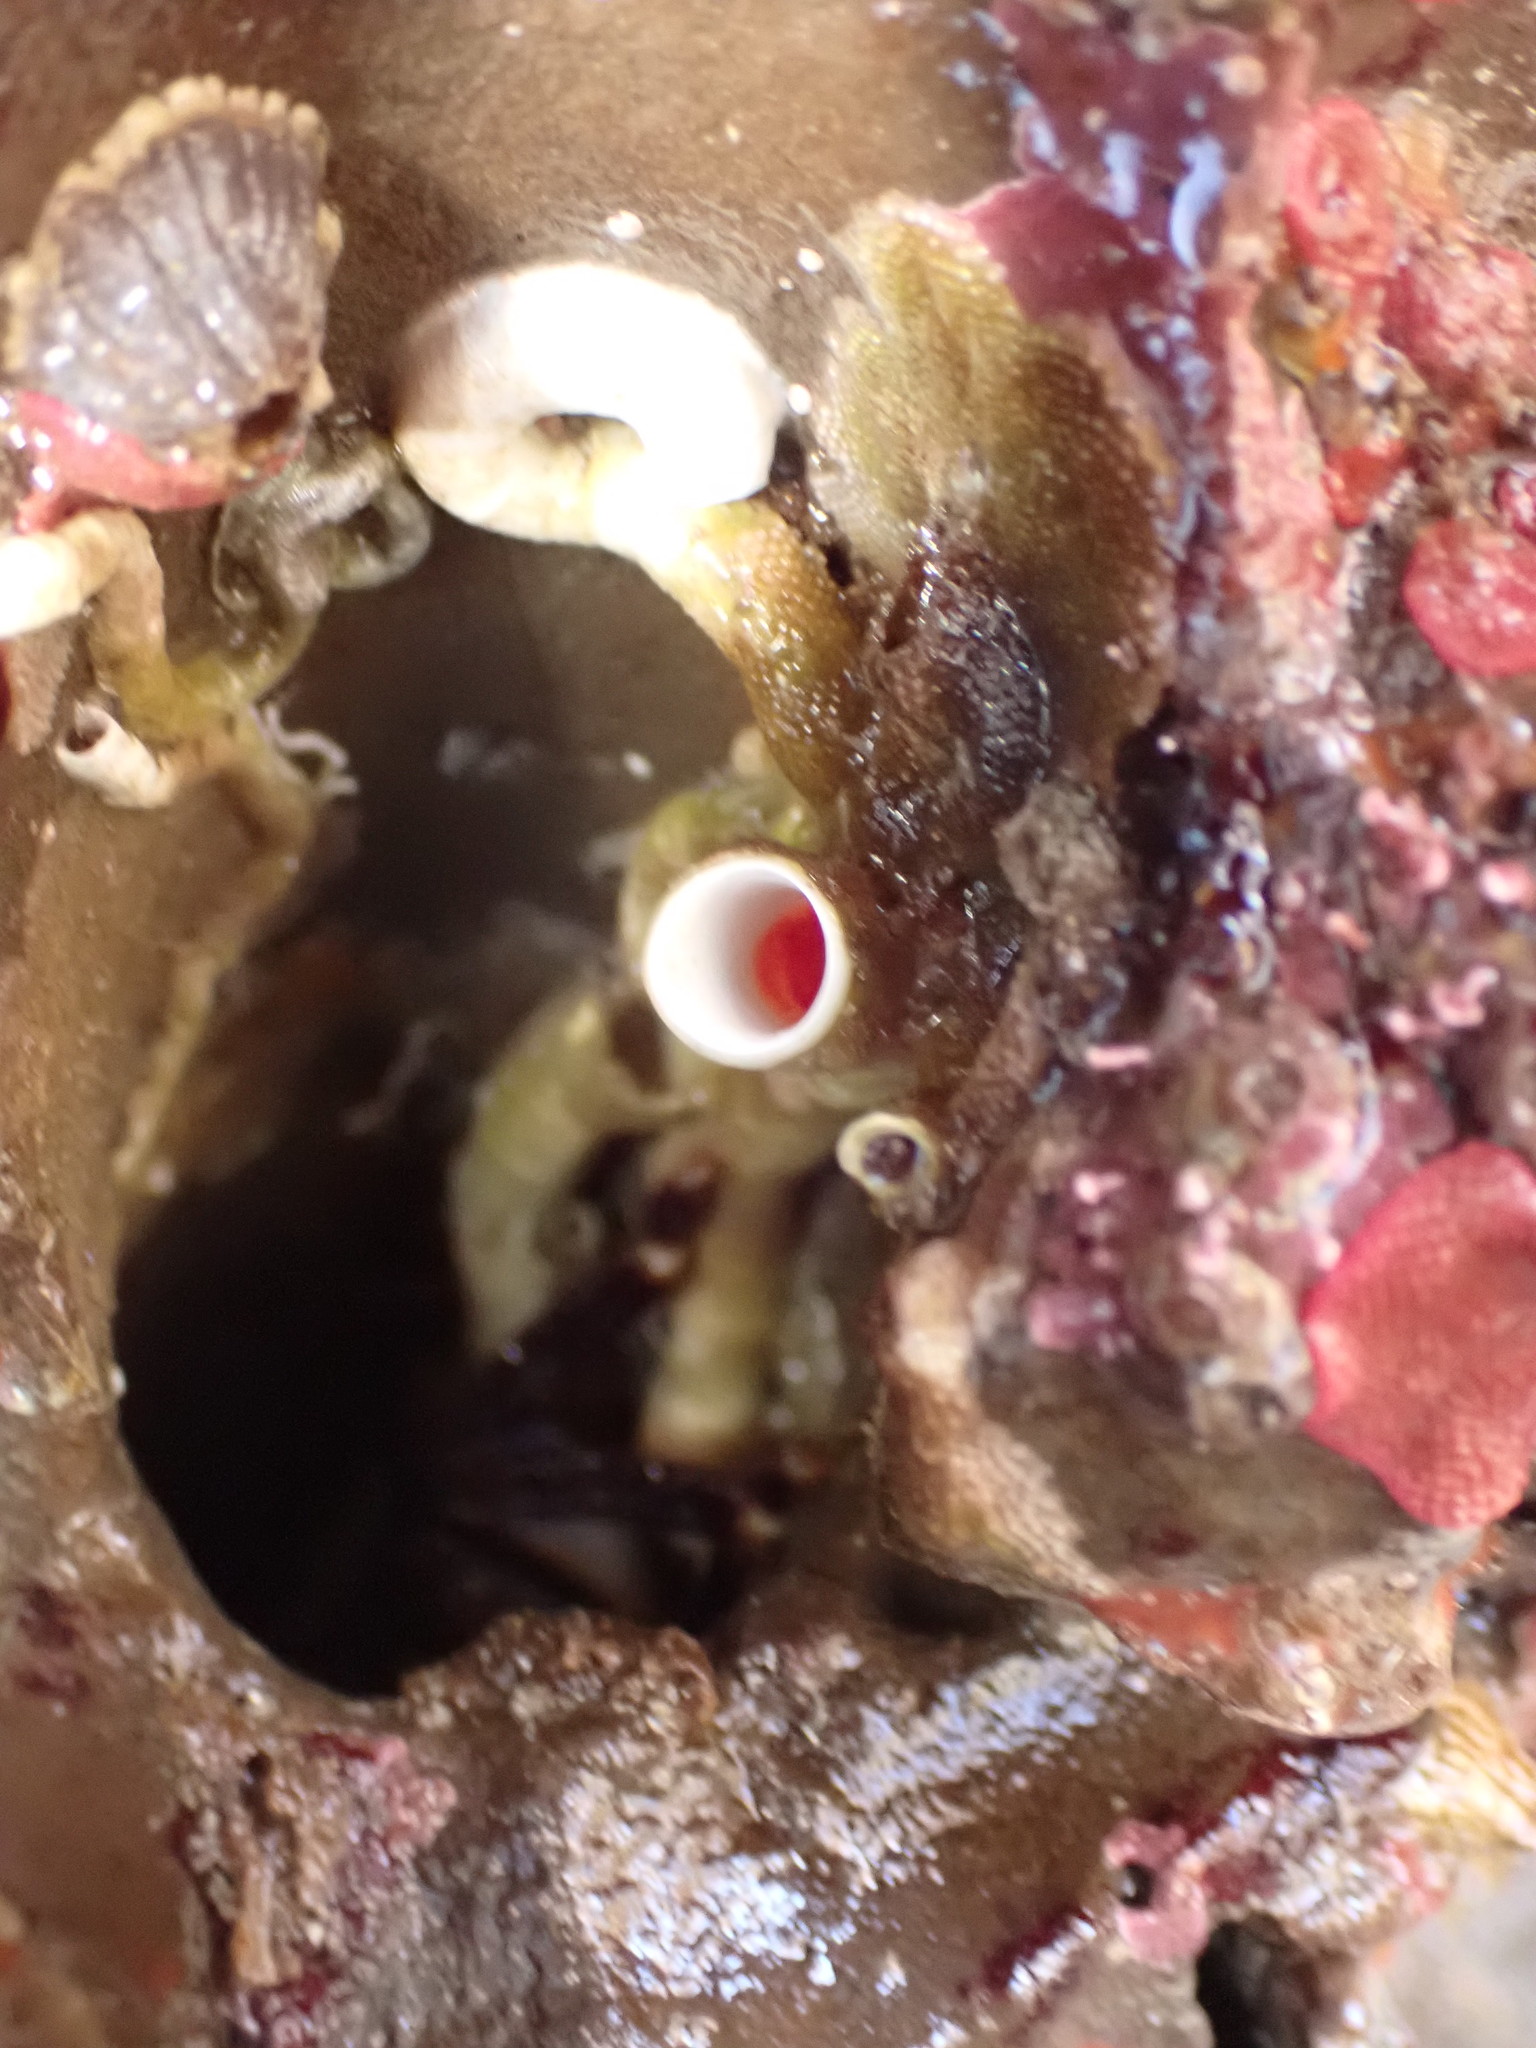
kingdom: Animalia
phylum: Annelida
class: Polychaeta
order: Sabellida
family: Serpulidae
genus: Serpula
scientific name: Serpula columbiana
